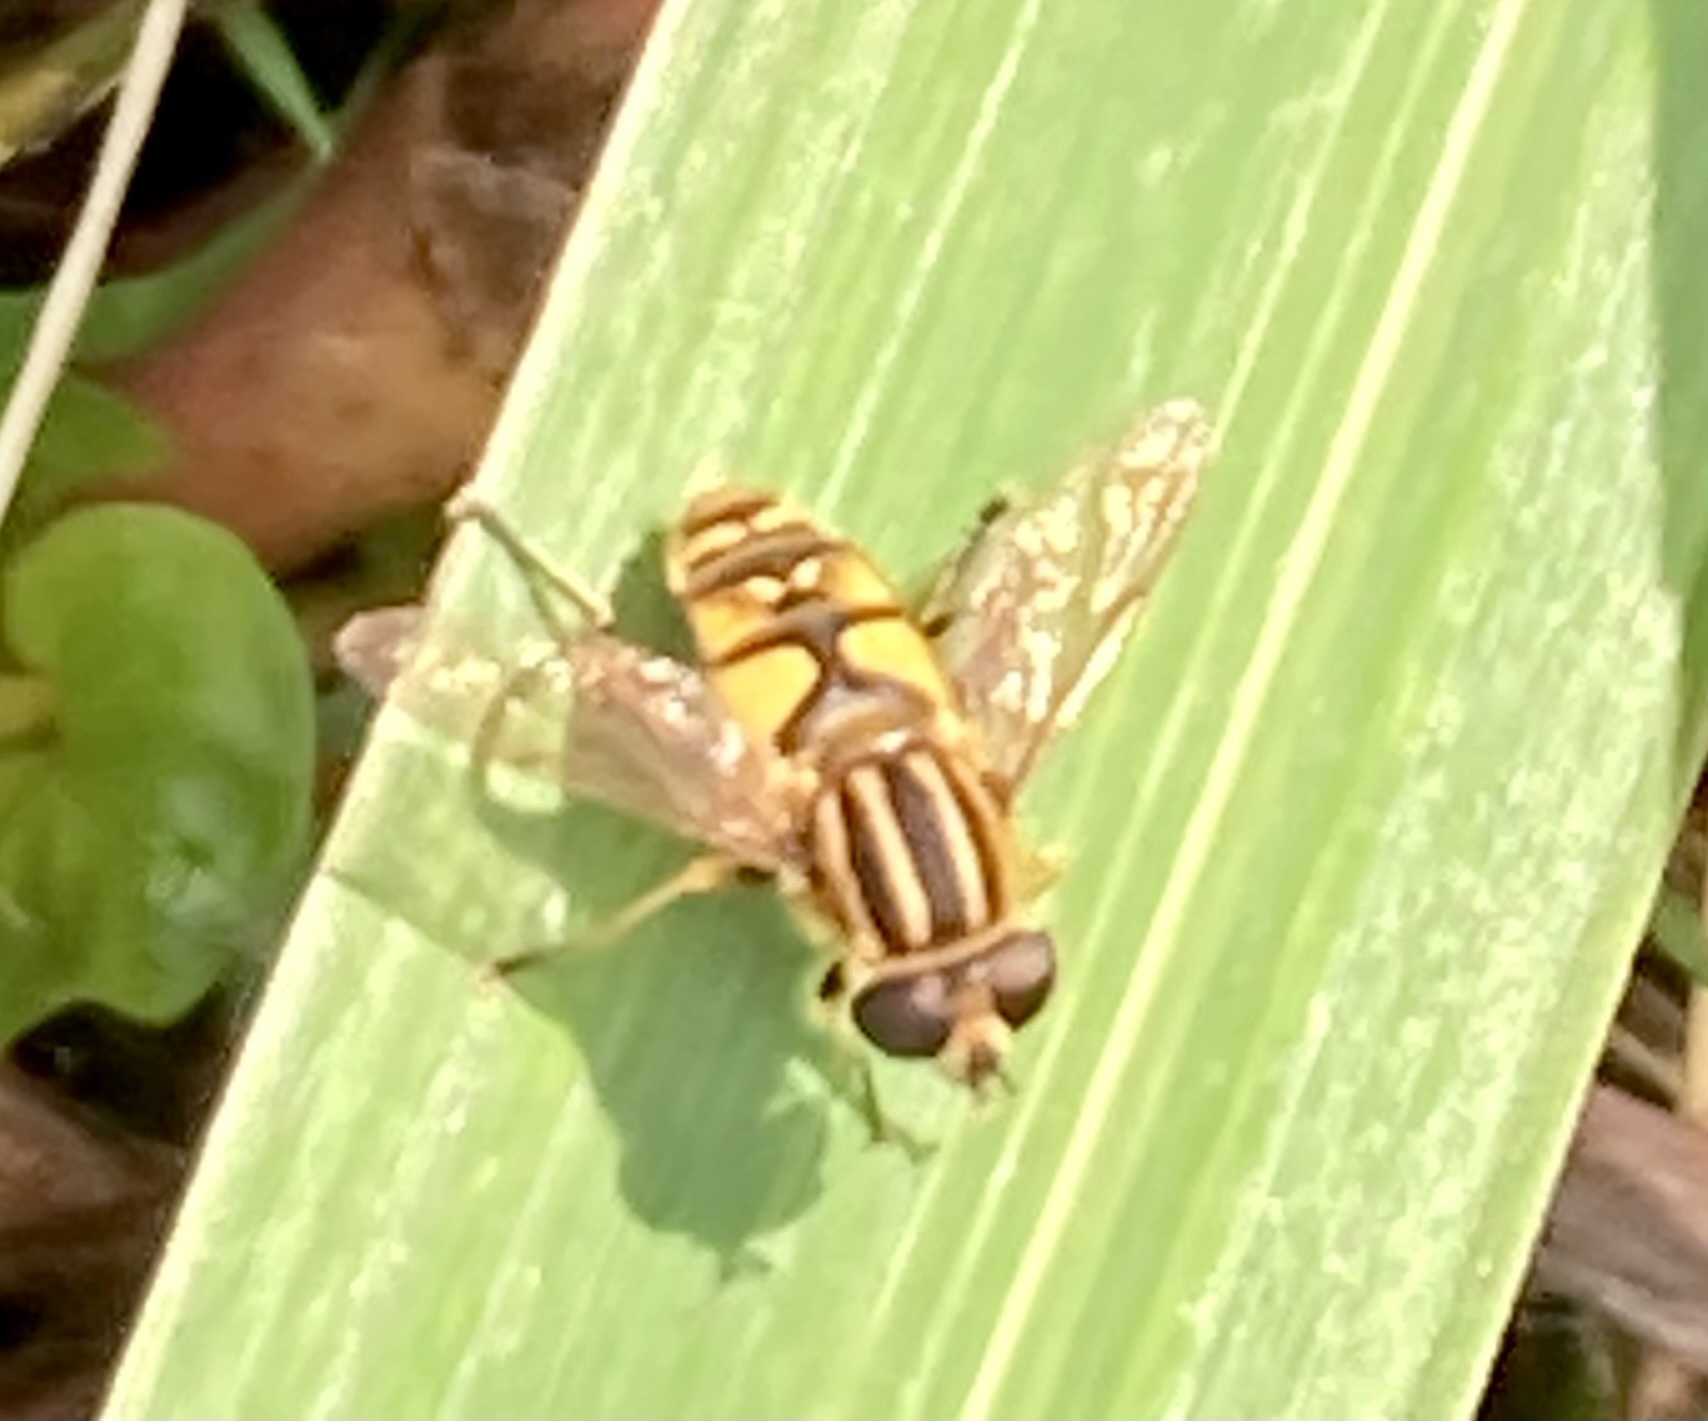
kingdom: Animalia
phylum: Arthropoda
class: Insecta
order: Diptera
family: Syrphidae
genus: Helophilus
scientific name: Helophilus pendulus
